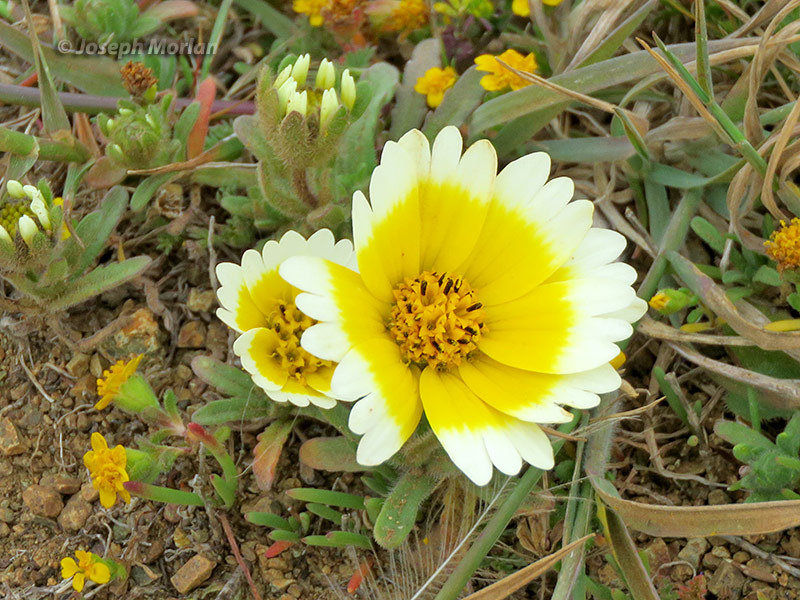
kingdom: Plantae
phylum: Tracheophyta
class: Magnoliopsida
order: Asterales
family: Asteraceae
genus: Layia
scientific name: Layia platyglossa
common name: Tidy-tips
